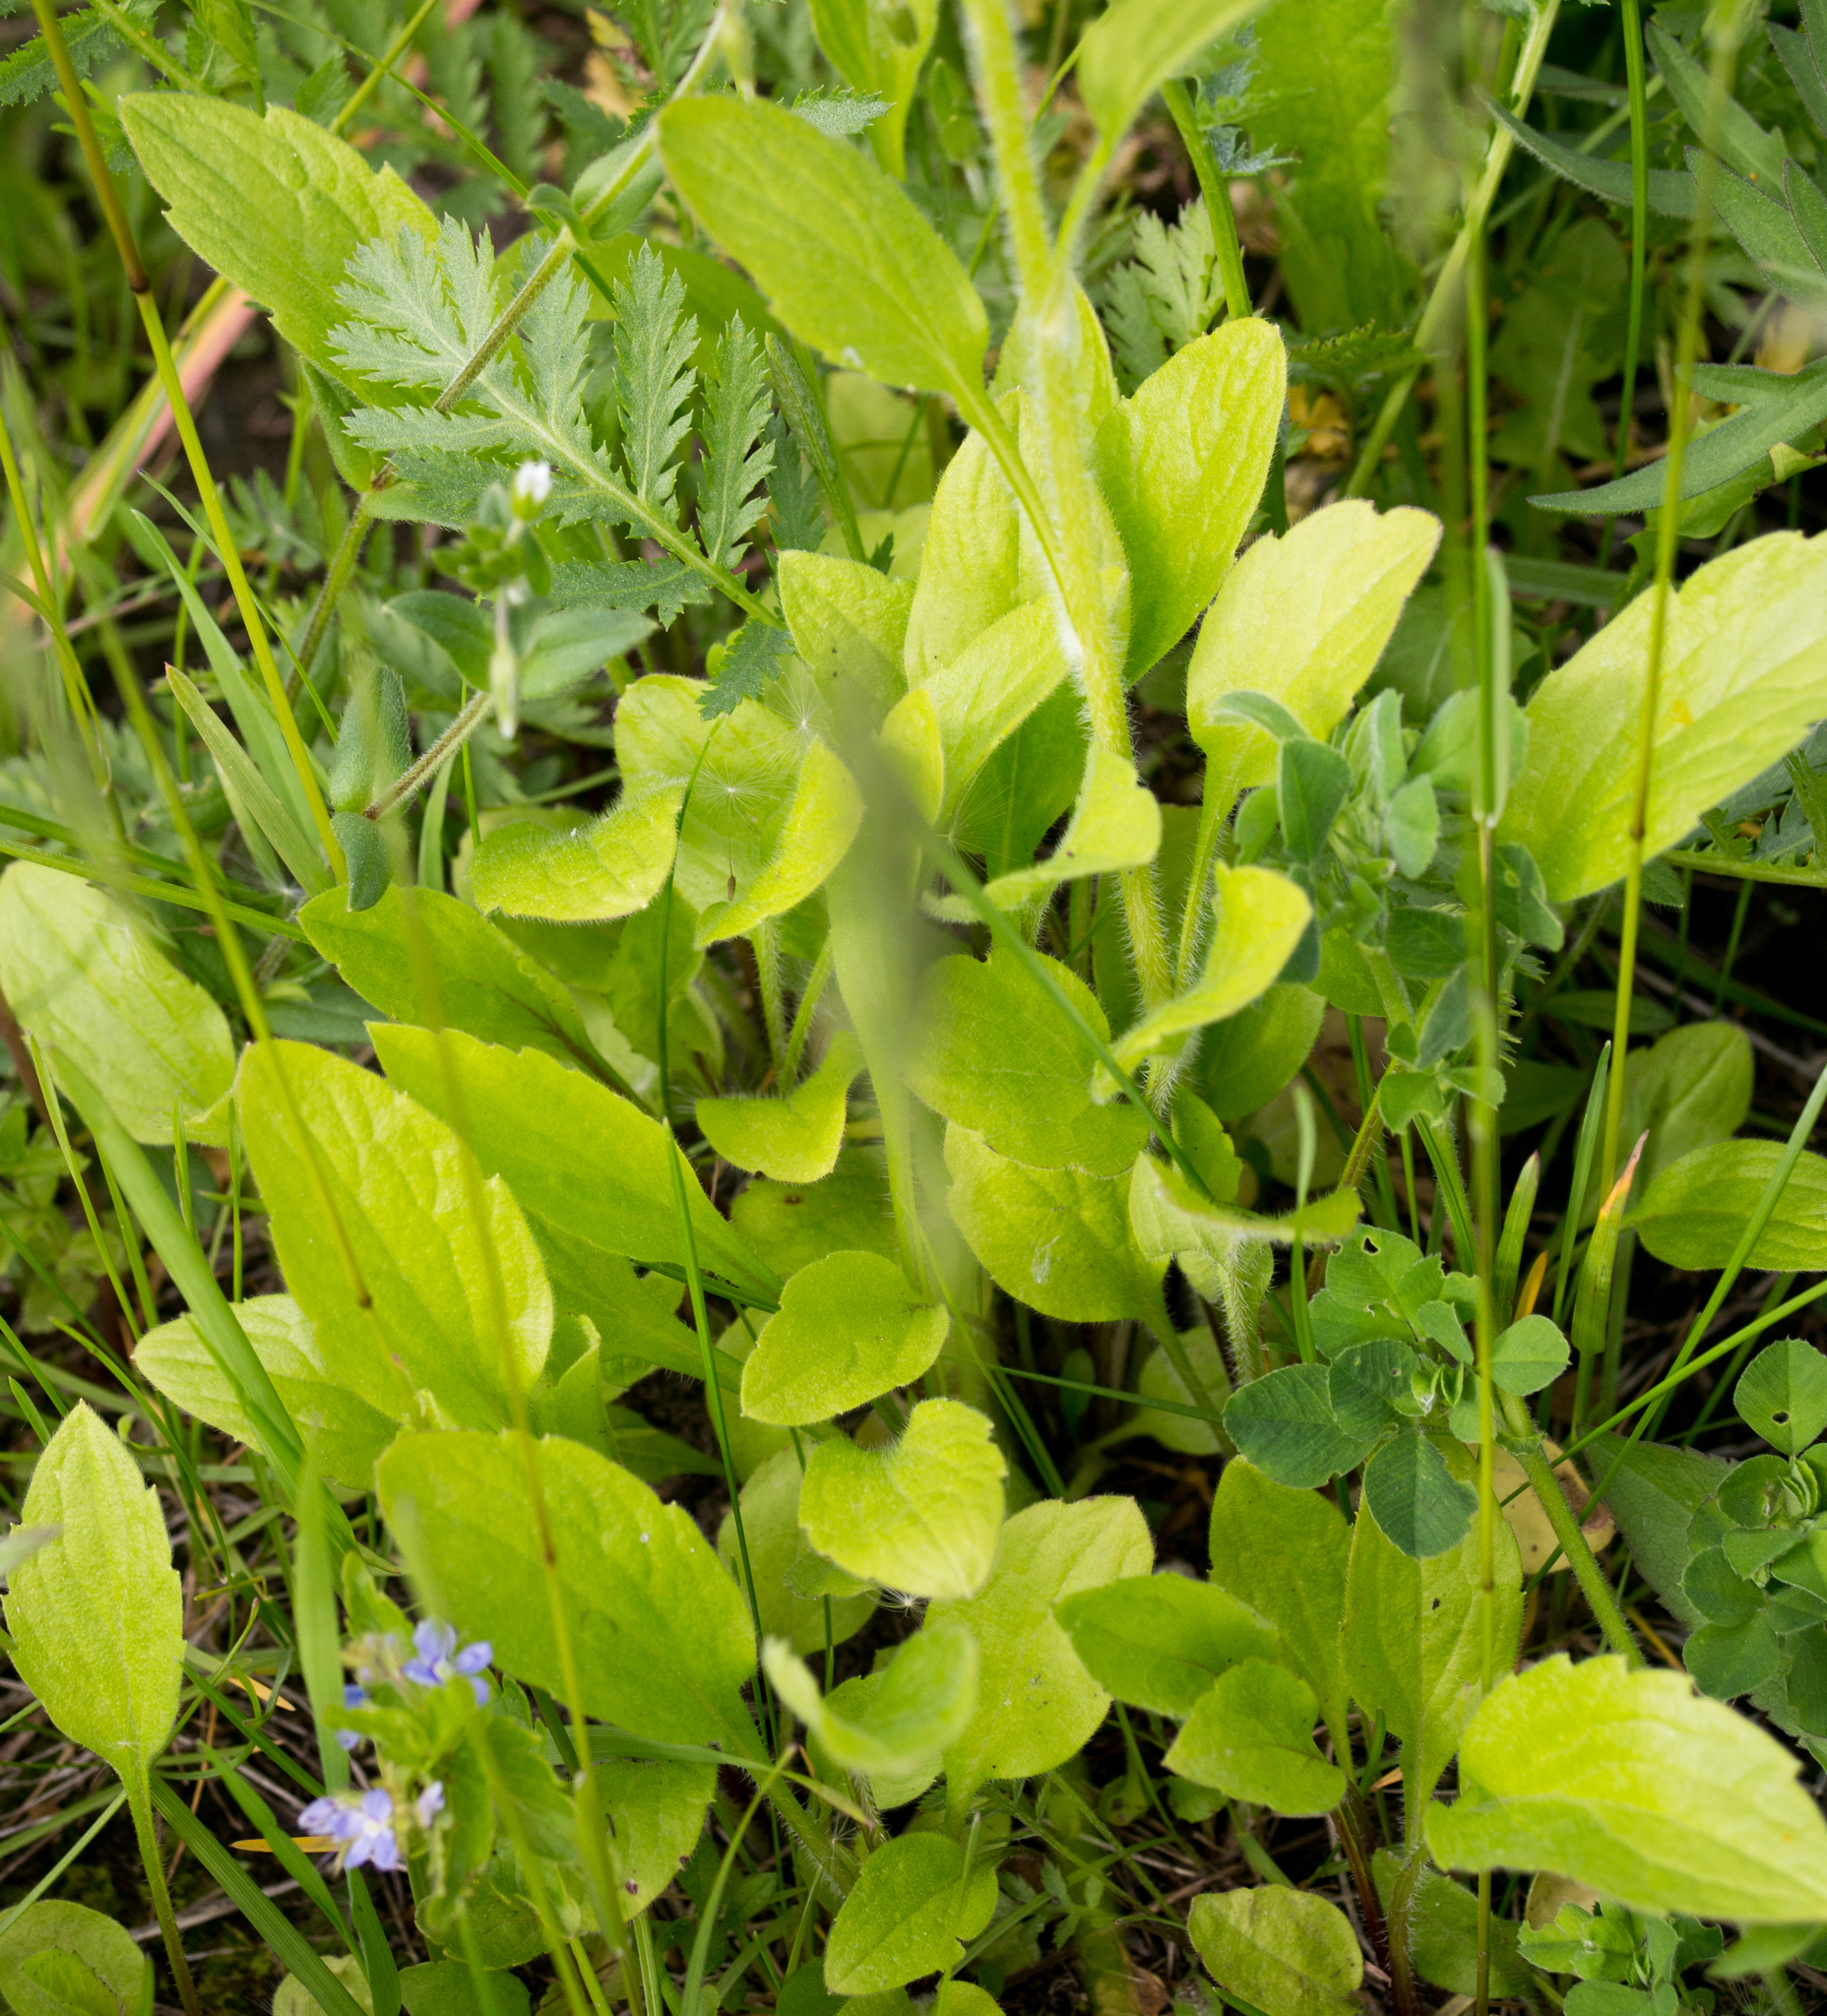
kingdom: Plantae
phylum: Tracheophyta
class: Magnoliopsida
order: Asterales
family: Asteraceae
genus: Erigeron
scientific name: Erigeron annuus
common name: Tall fleabane
